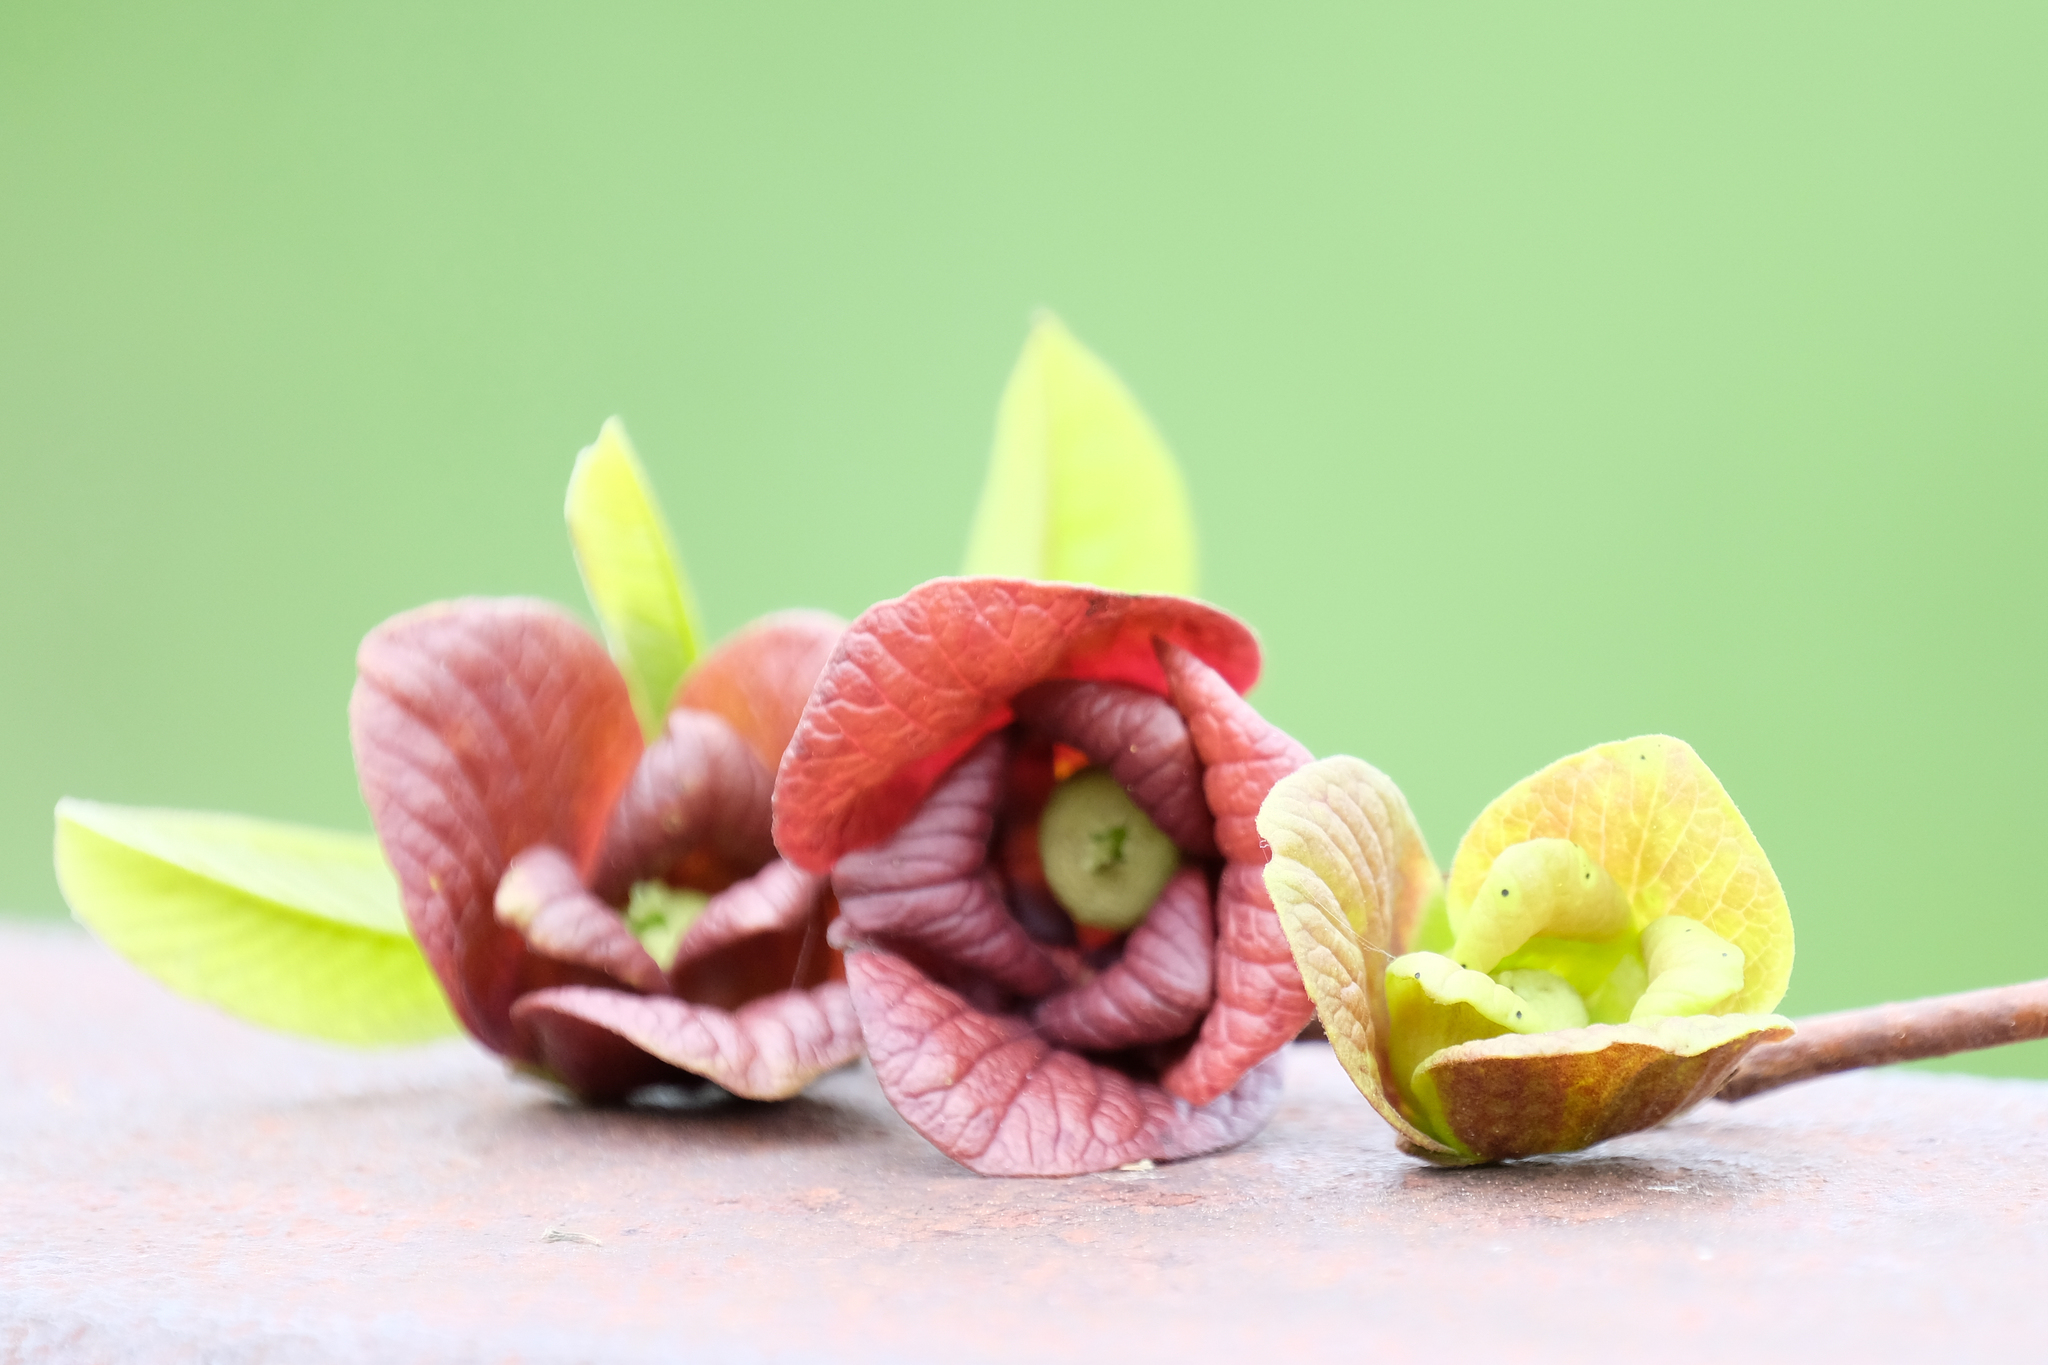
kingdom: Plantae
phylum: Tracheophyta
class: Magnoliopsida
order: Magnoliales
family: Annonaceae
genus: Asimina
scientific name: Asimina triloba
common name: Dog-banana
